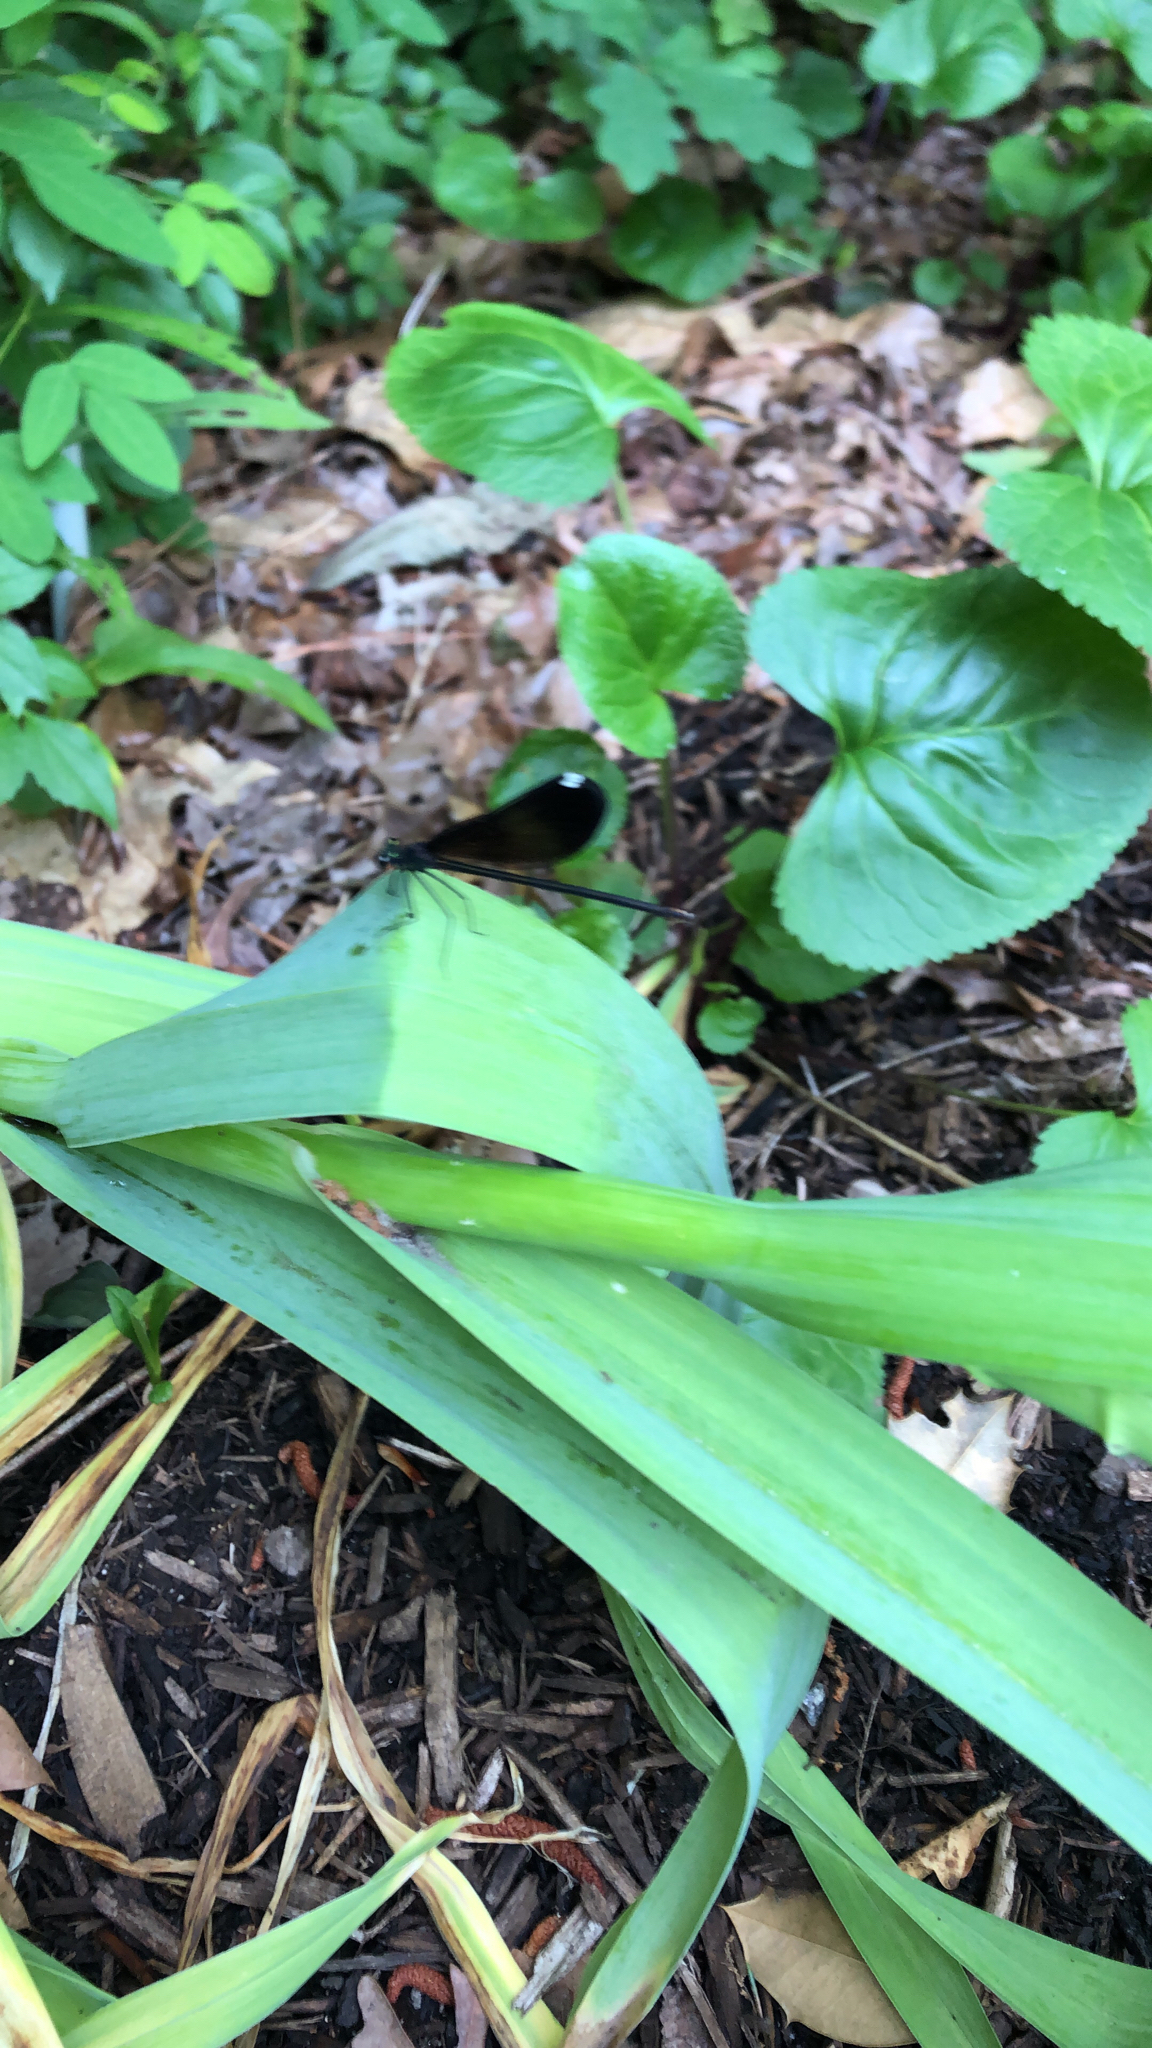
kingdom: Animalia
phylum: Arthropoda
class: Insecta
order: Odonata
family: Calopterygidae
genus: Calopteryx
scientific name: Calopteryx maculata
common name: Ebony jewelwing
